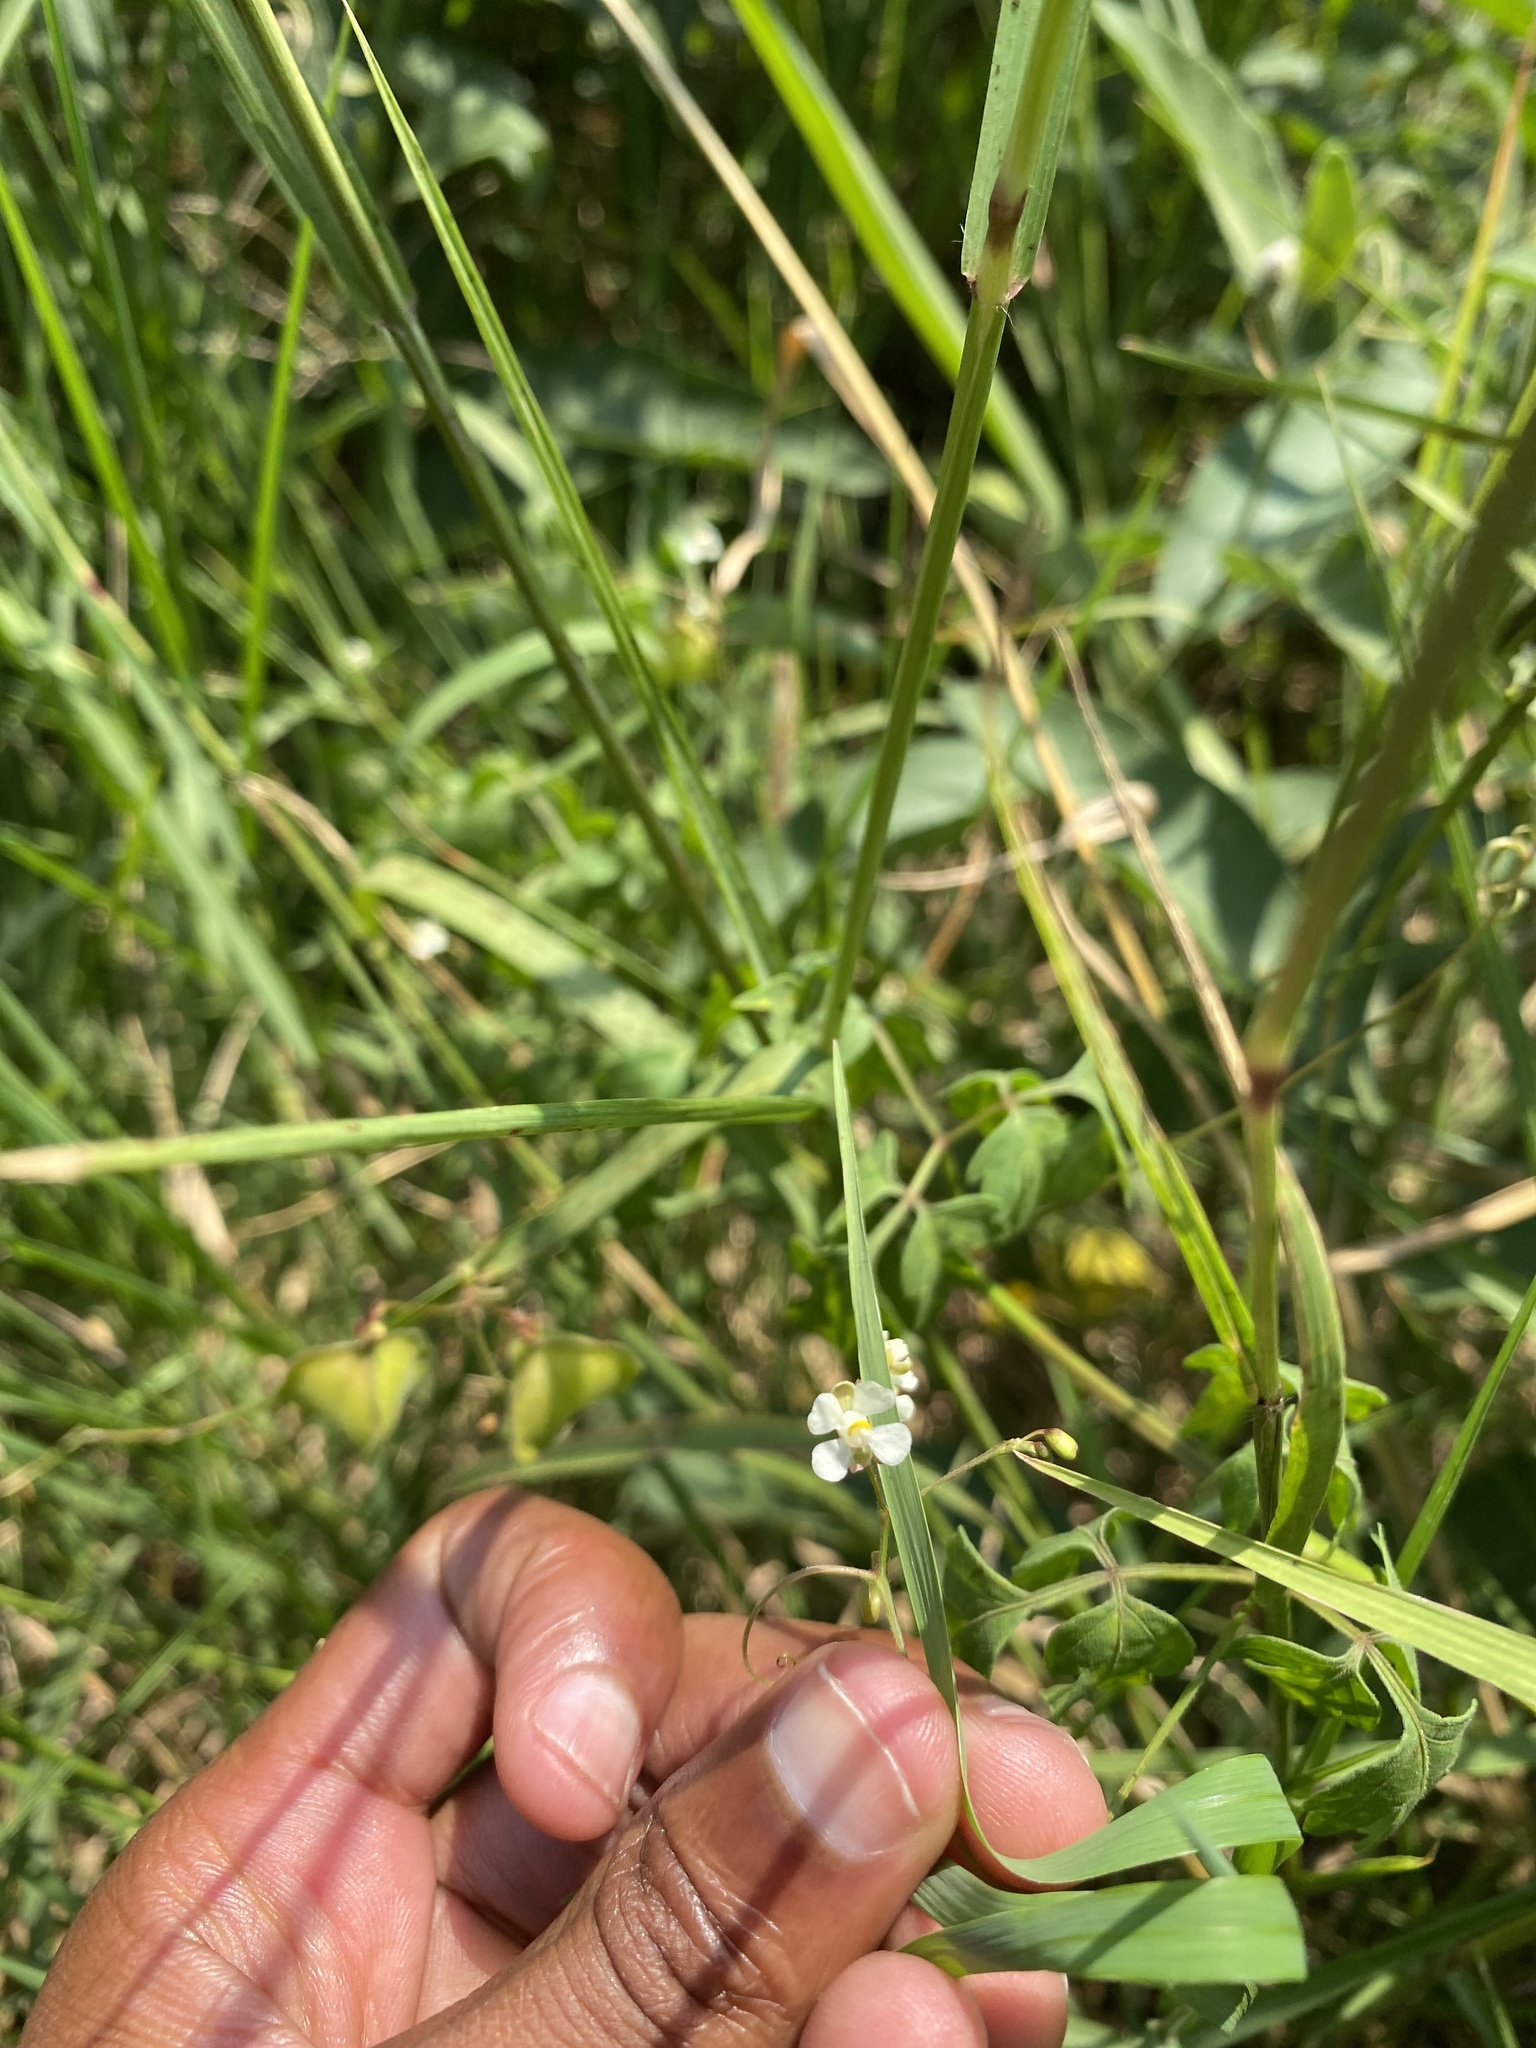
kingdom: Plantae
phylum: Tracheophyta
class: Magnoliopsida
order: Sapindales
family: Sapindaceae
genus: Cardiospermum
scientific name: Cardiospermum halicacabum
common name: Balloon vine
